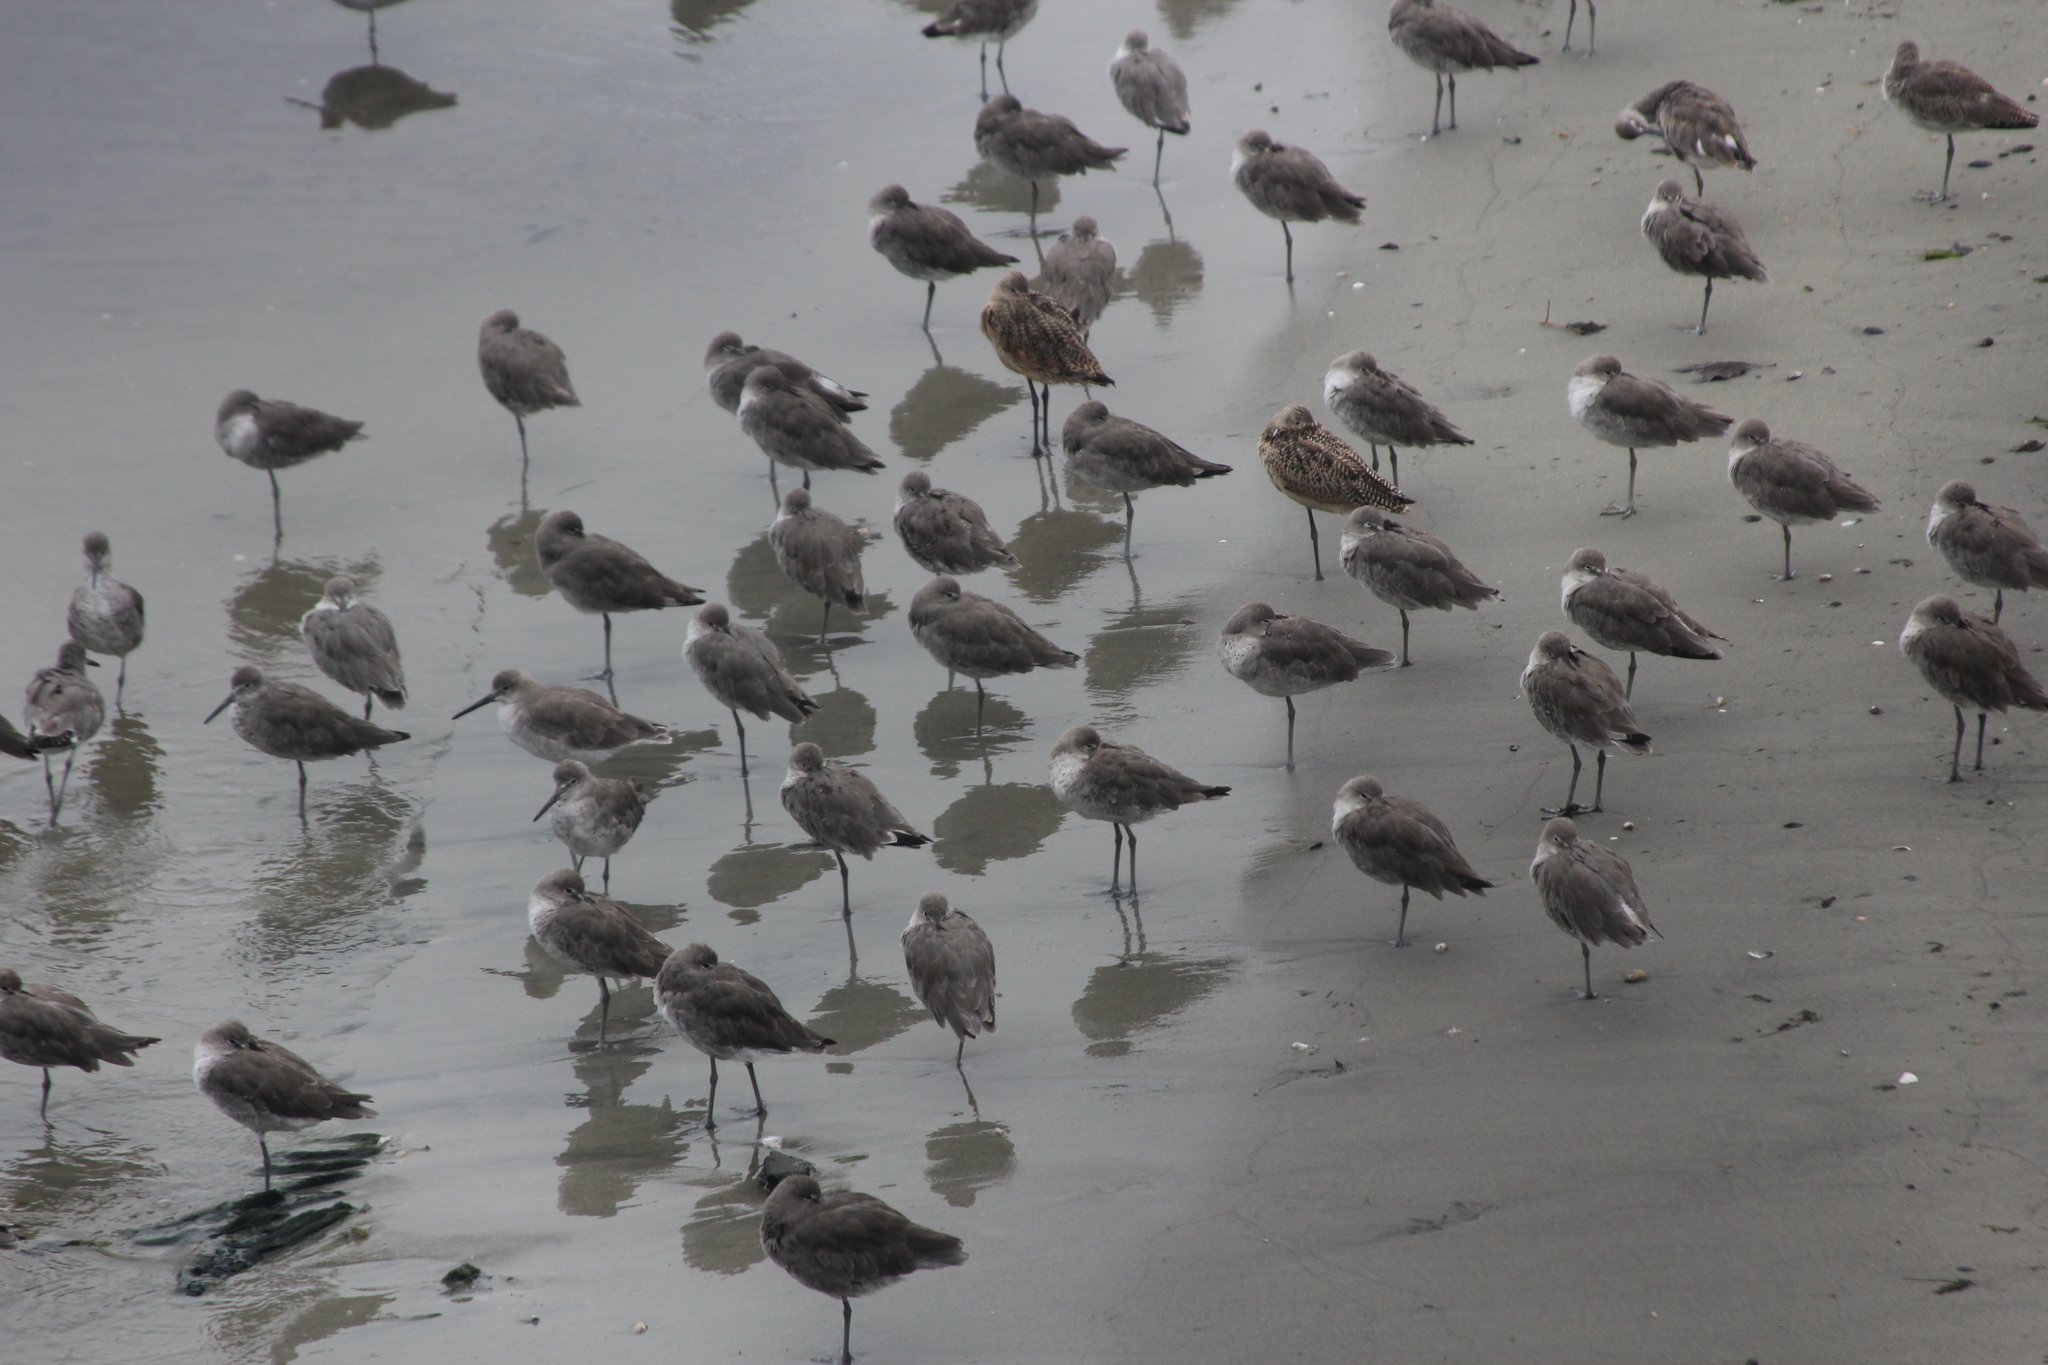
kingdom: Animalia
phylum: Chordata
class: Aves
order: Charadriiformes
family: Scolopacidae
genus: Tringa
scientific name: Tringa semipalmata
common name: Willet
